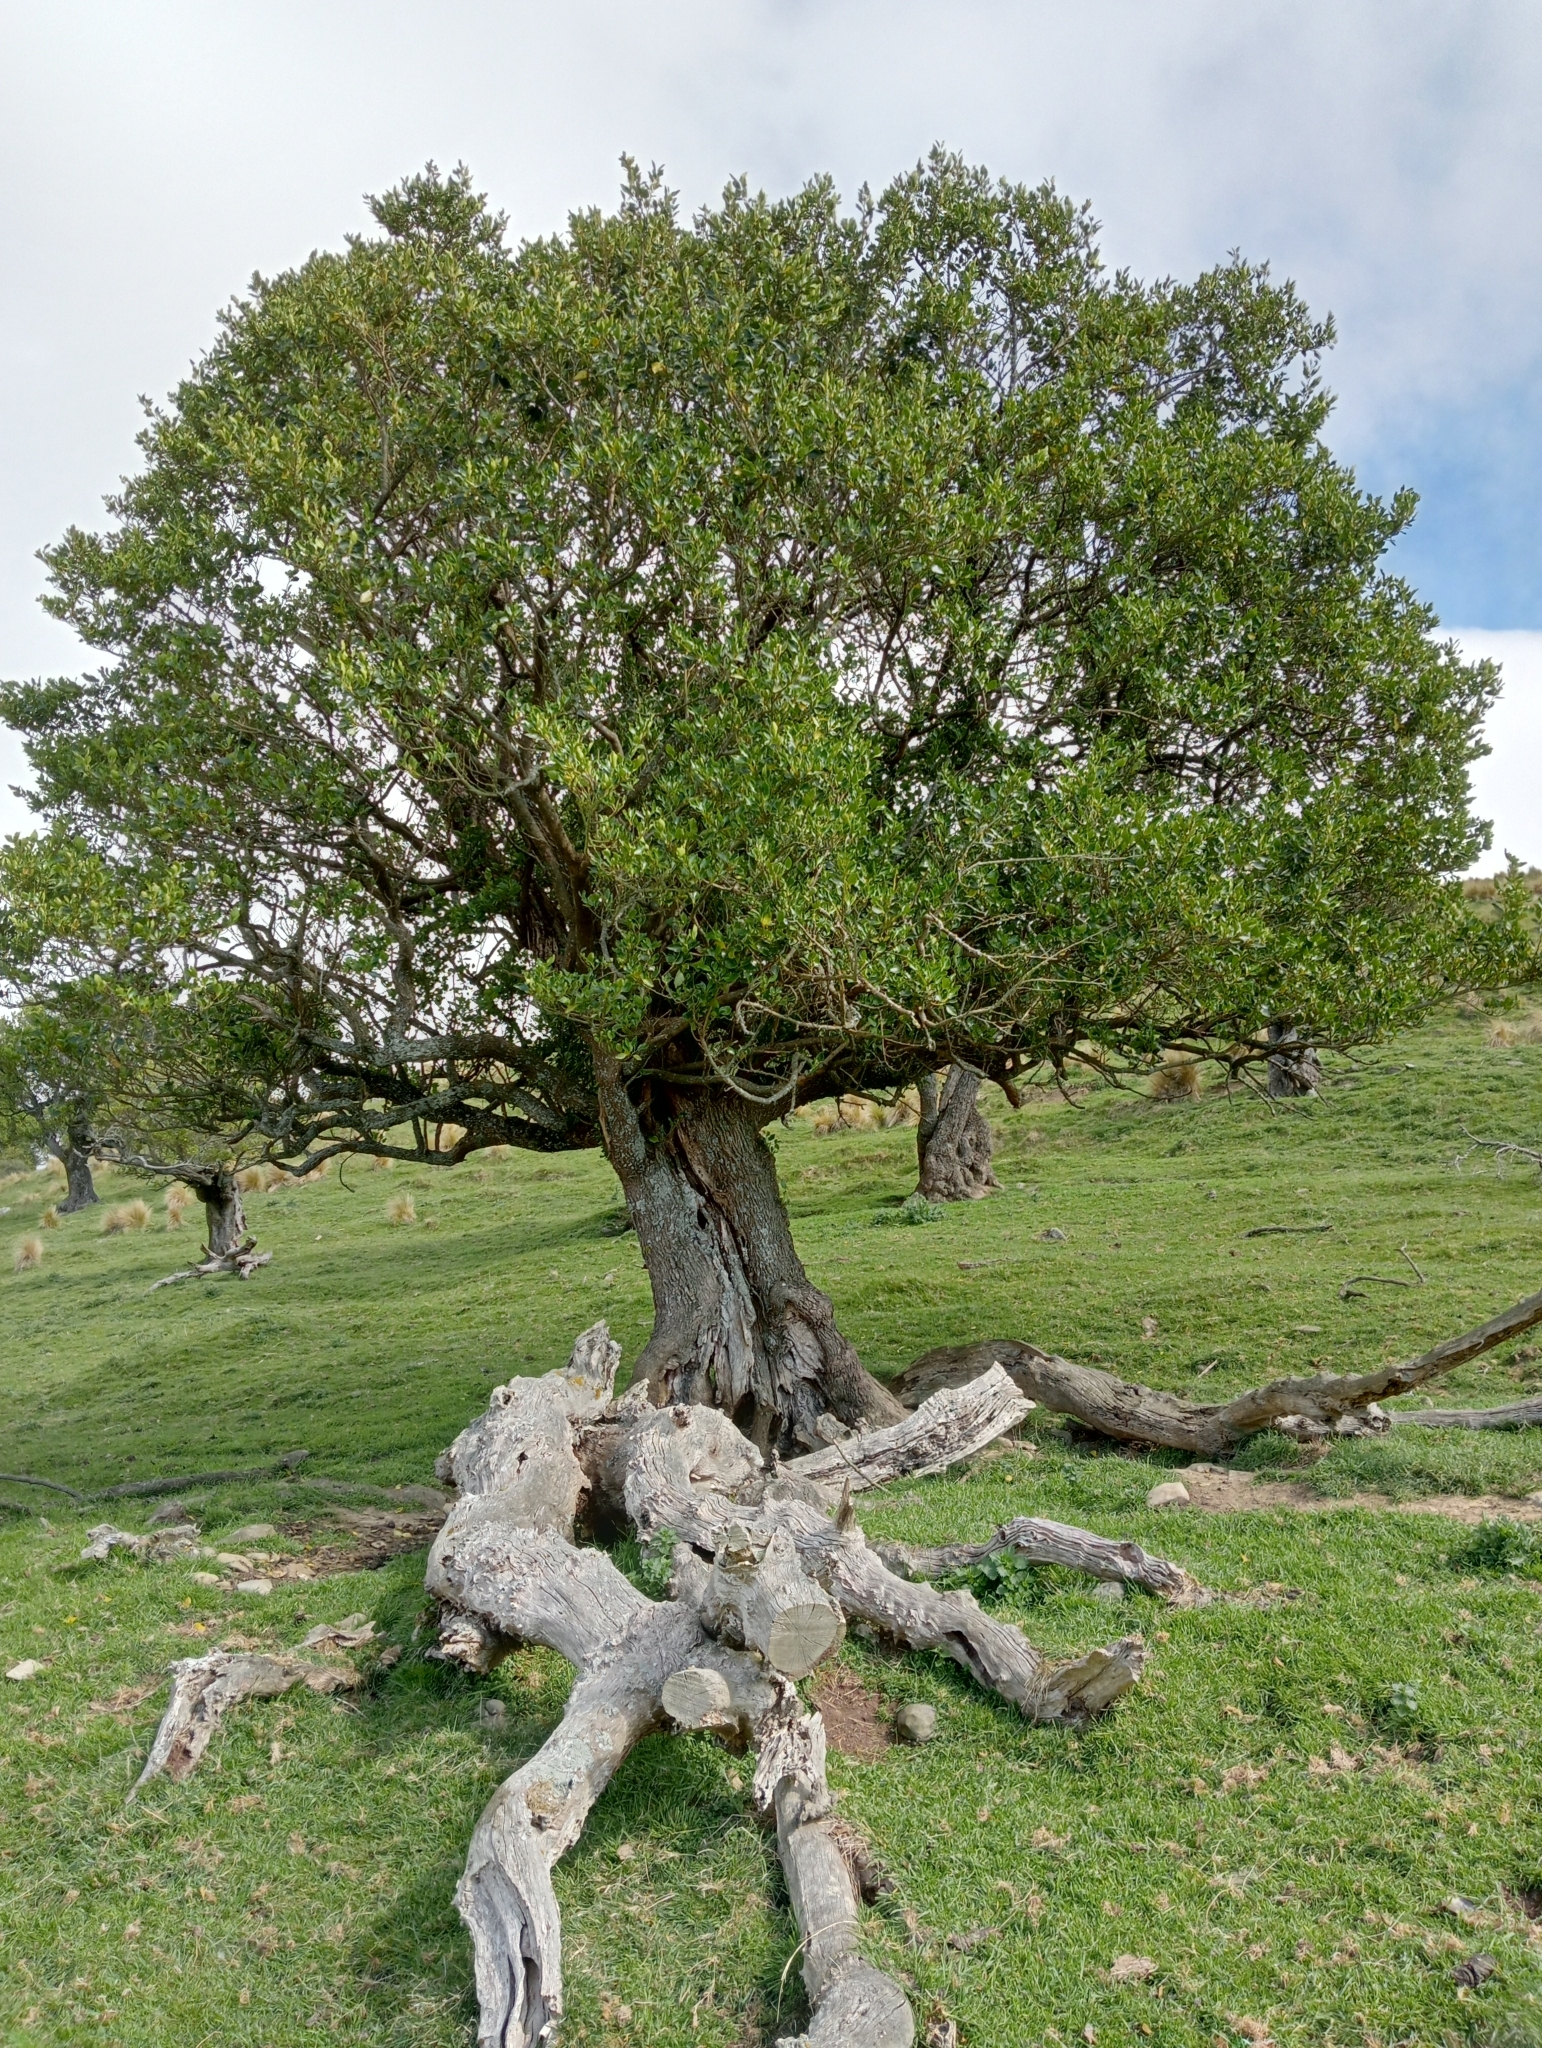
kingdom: Plantae
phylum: Tracheophyta
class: Magnoliopsida
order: Apiales
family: Griseliniaceae
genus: Griselinia
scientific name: Griselinia littoralis
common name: New zealand broadleaf
